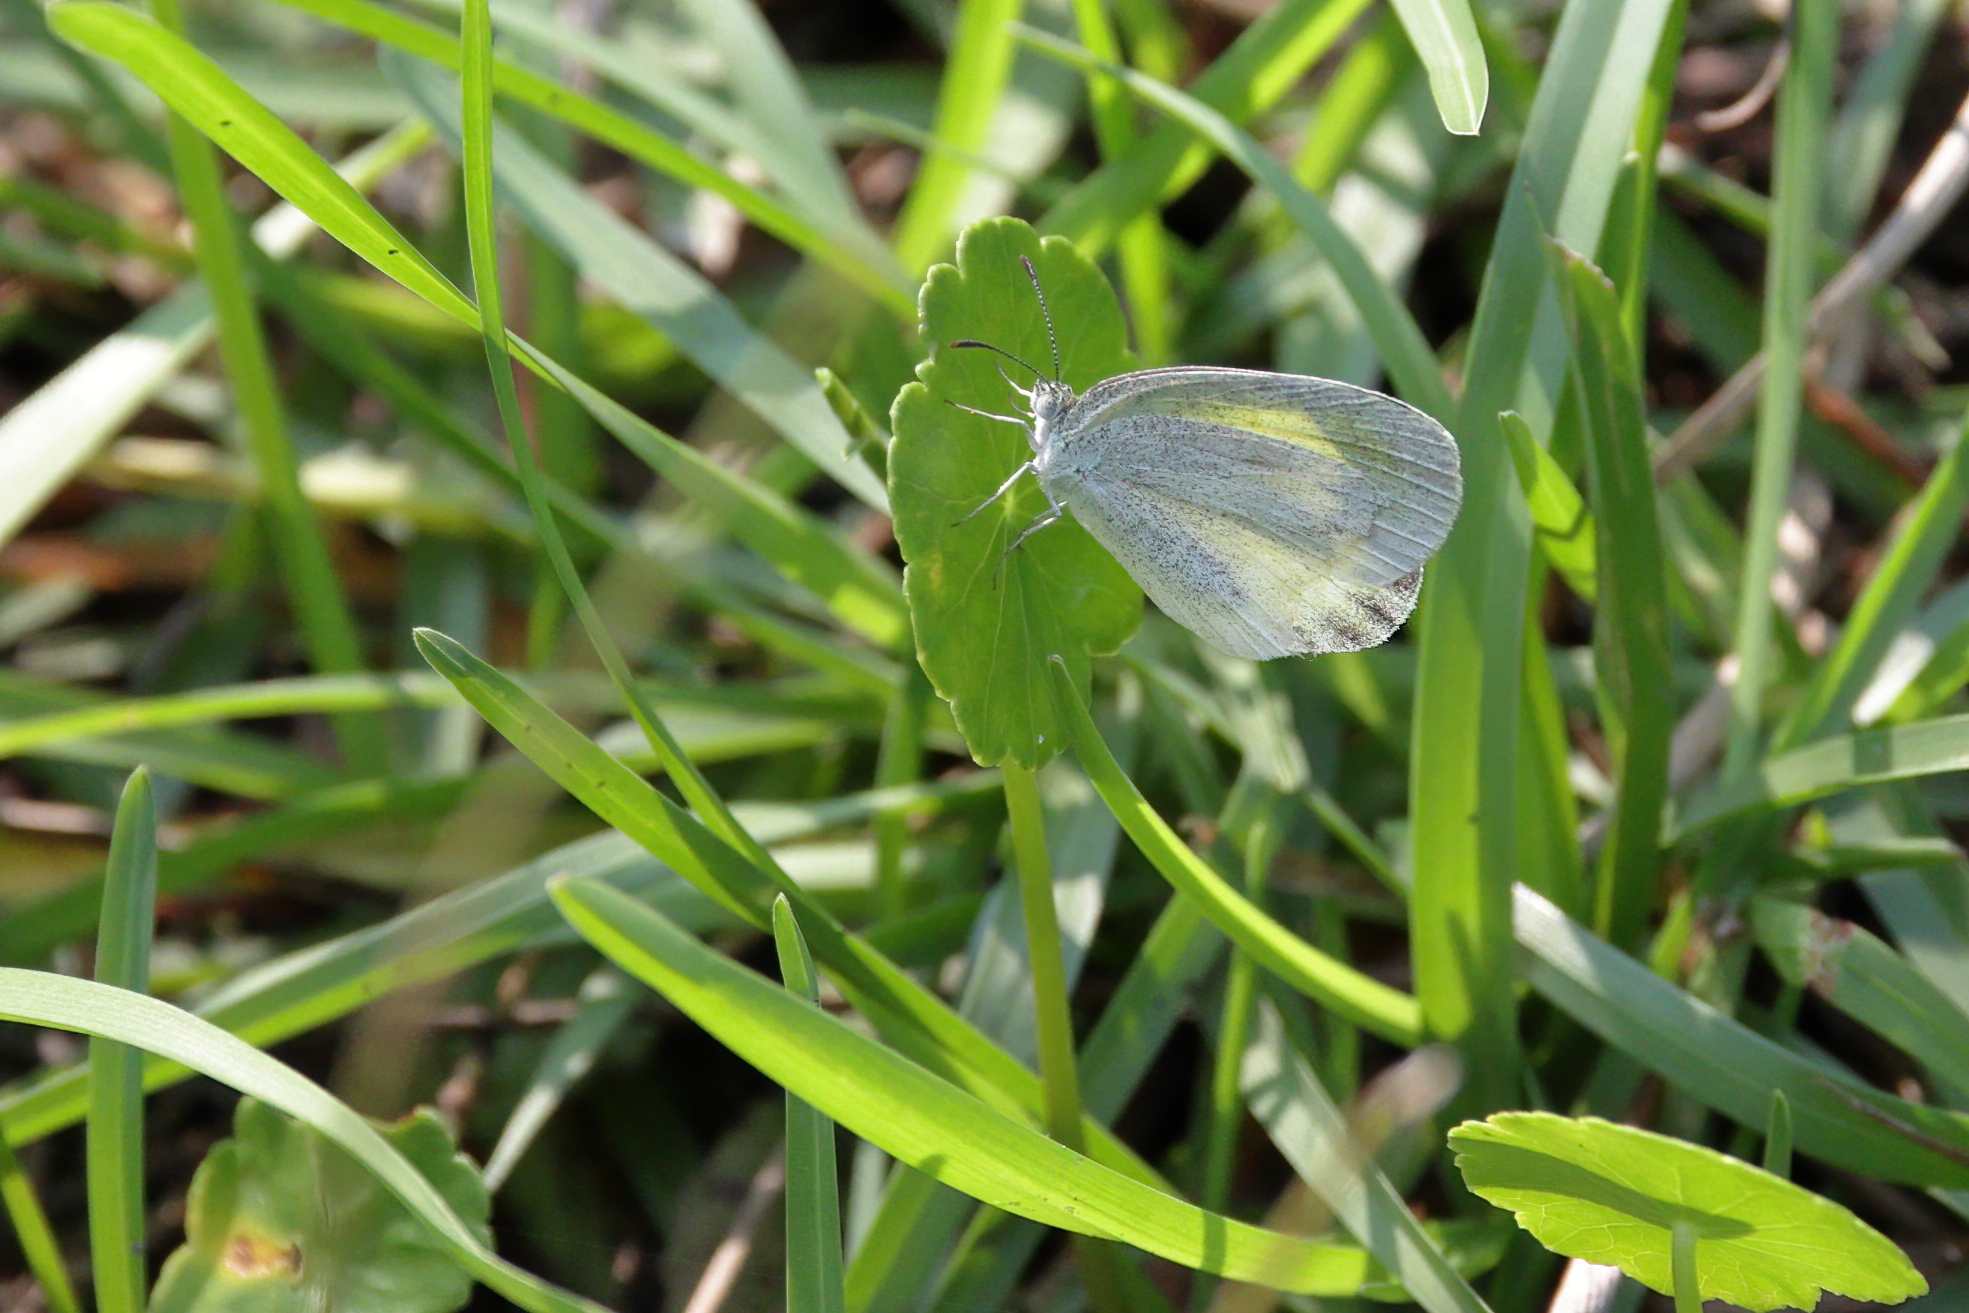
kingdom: Animalia
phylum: Arthropoda
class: Insecta
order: Lepidoptera
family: Pieridae
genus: Eurema
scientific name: Eurema daira
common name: Barred sulphur
